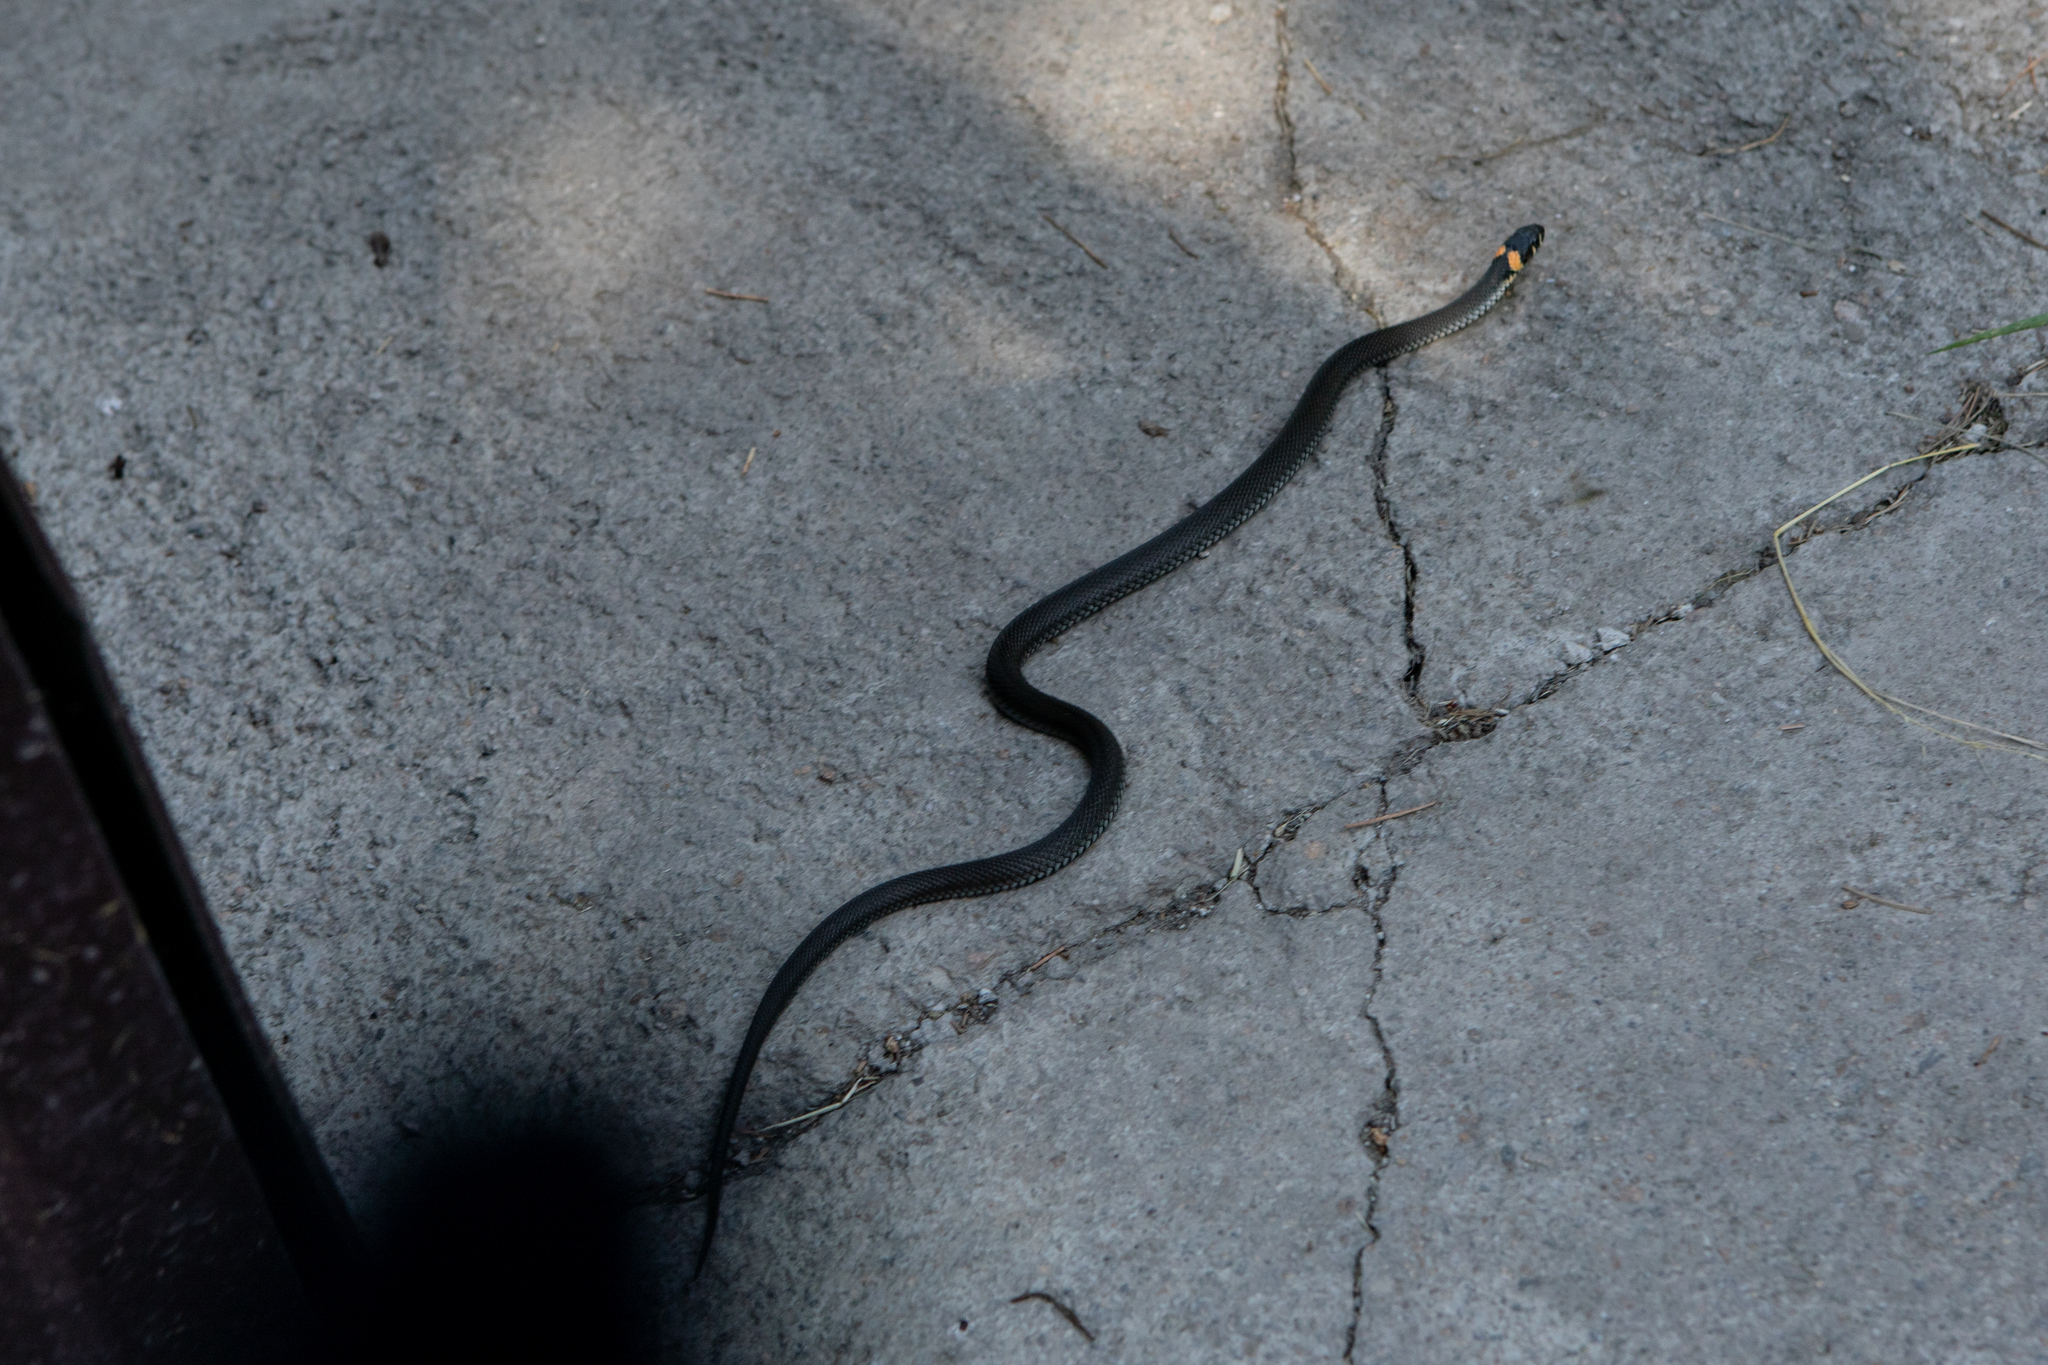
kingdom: Animalia
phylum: Chordata
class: Squamata
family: Colubridae
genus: Natrix
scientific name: Natrix natrix
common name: Grass snake
